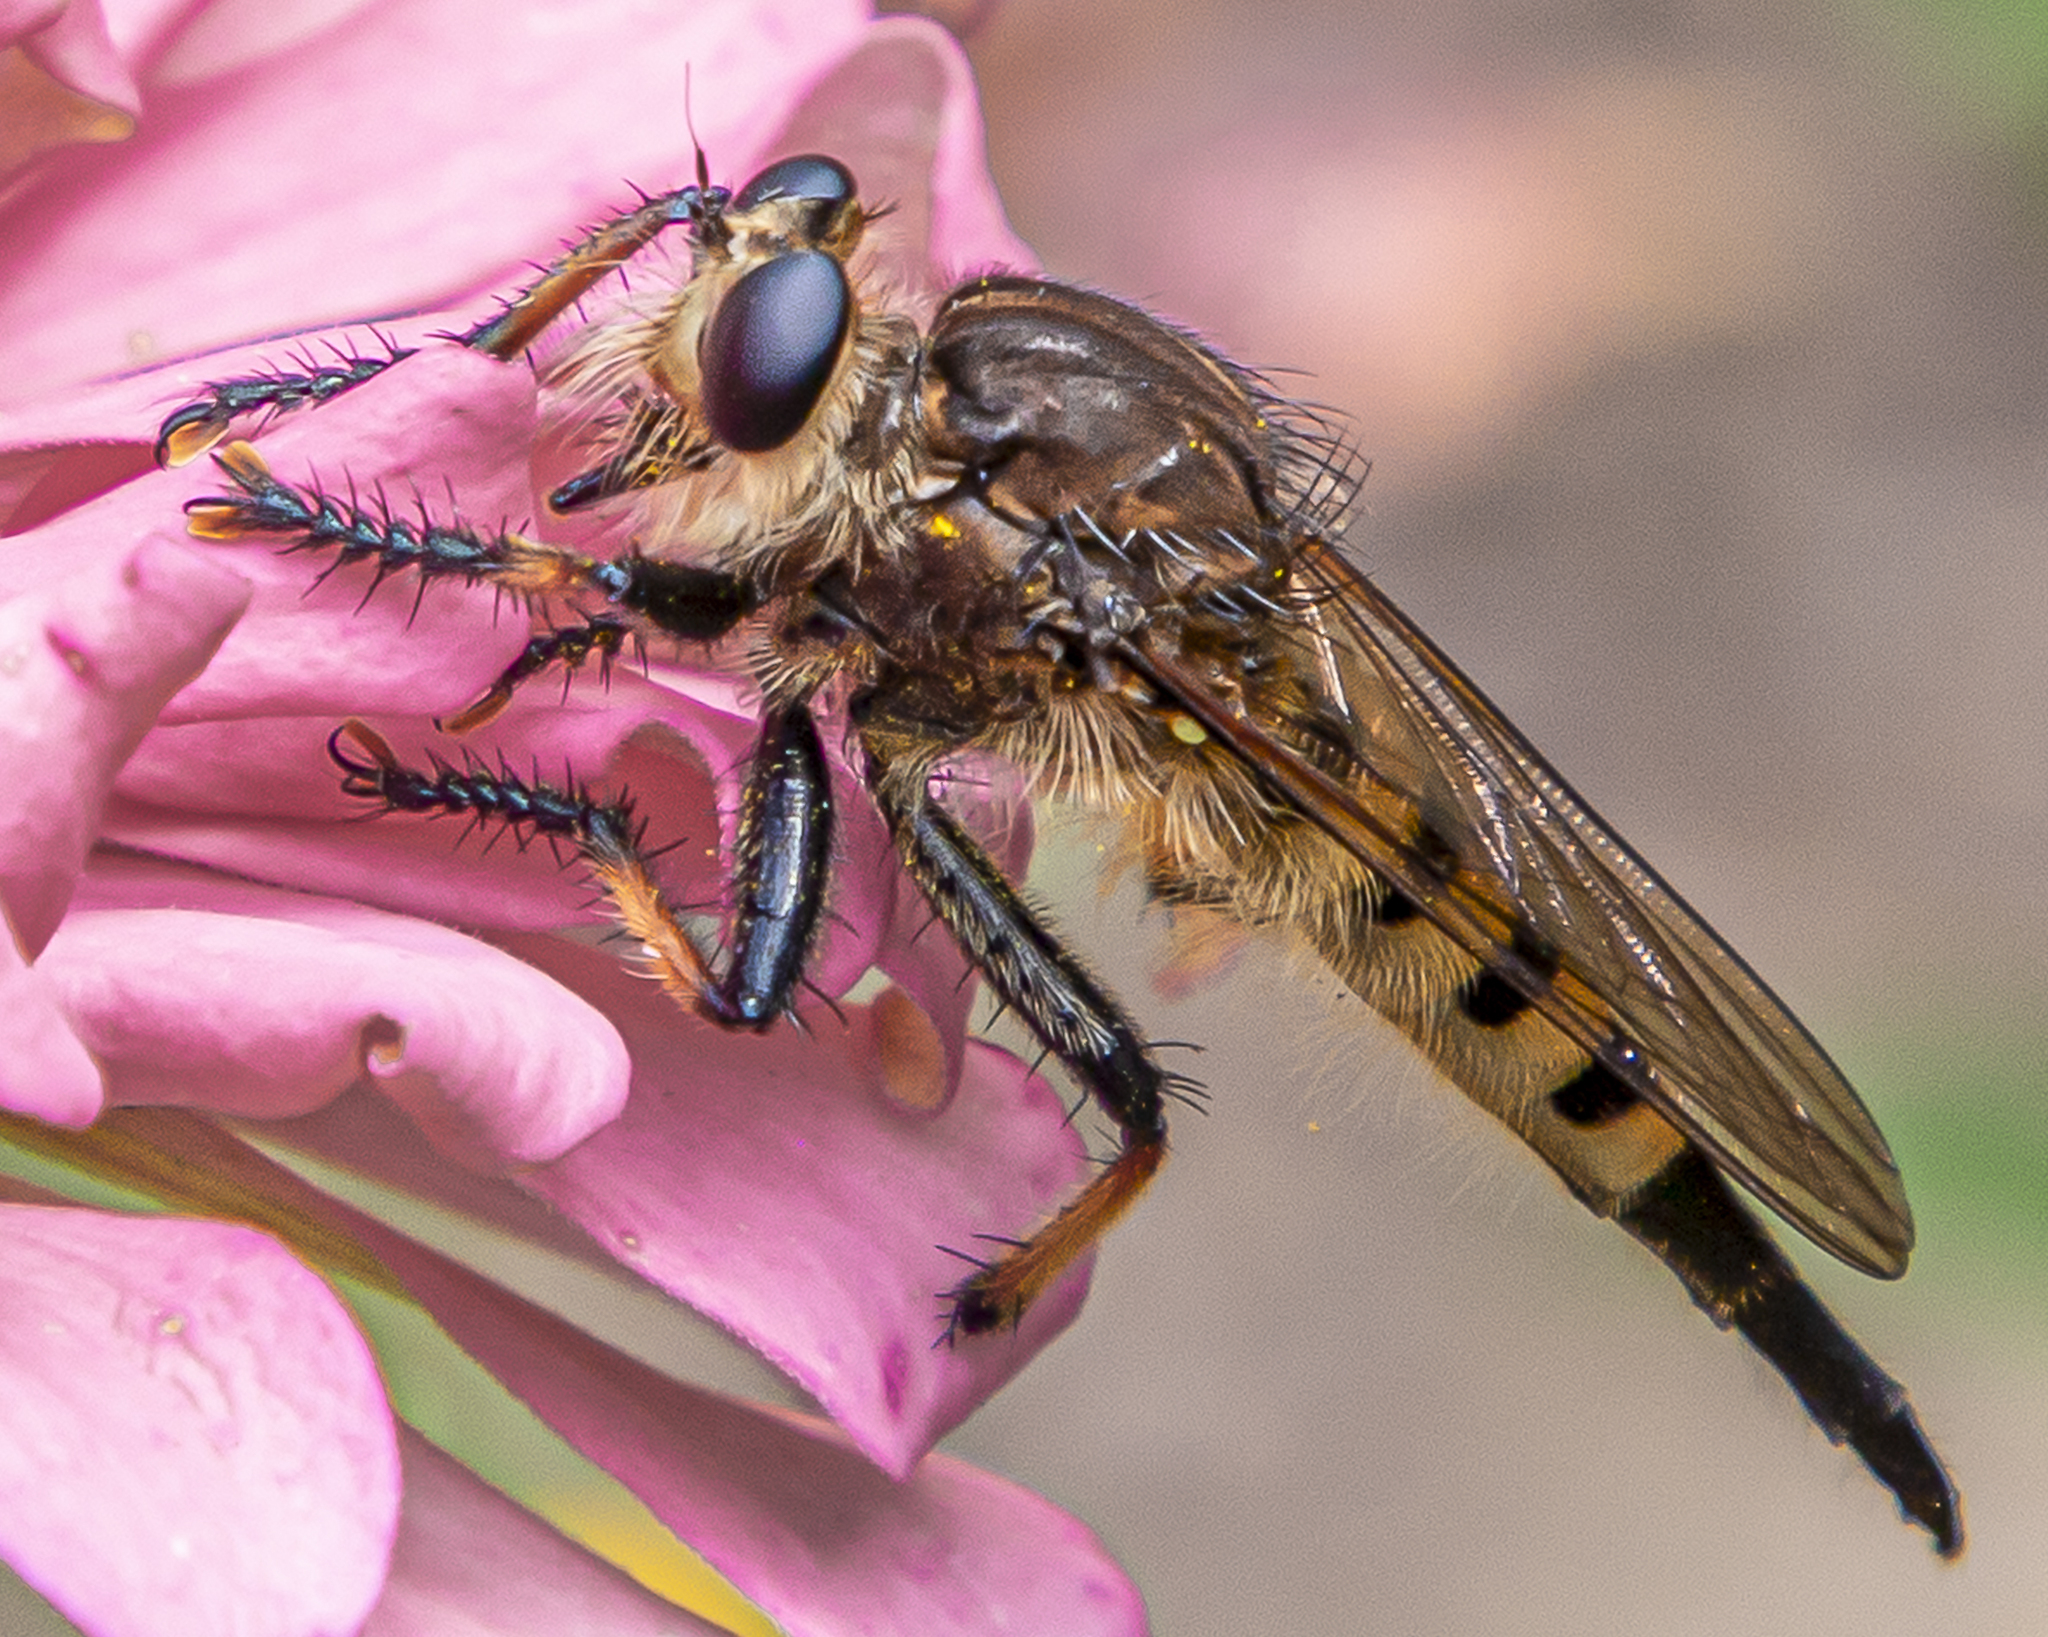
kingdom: Animalia
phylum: Arthropoda
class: Insecta
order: Diptera
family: Asilidae
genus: Promachus
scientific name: Promachus rufipes
